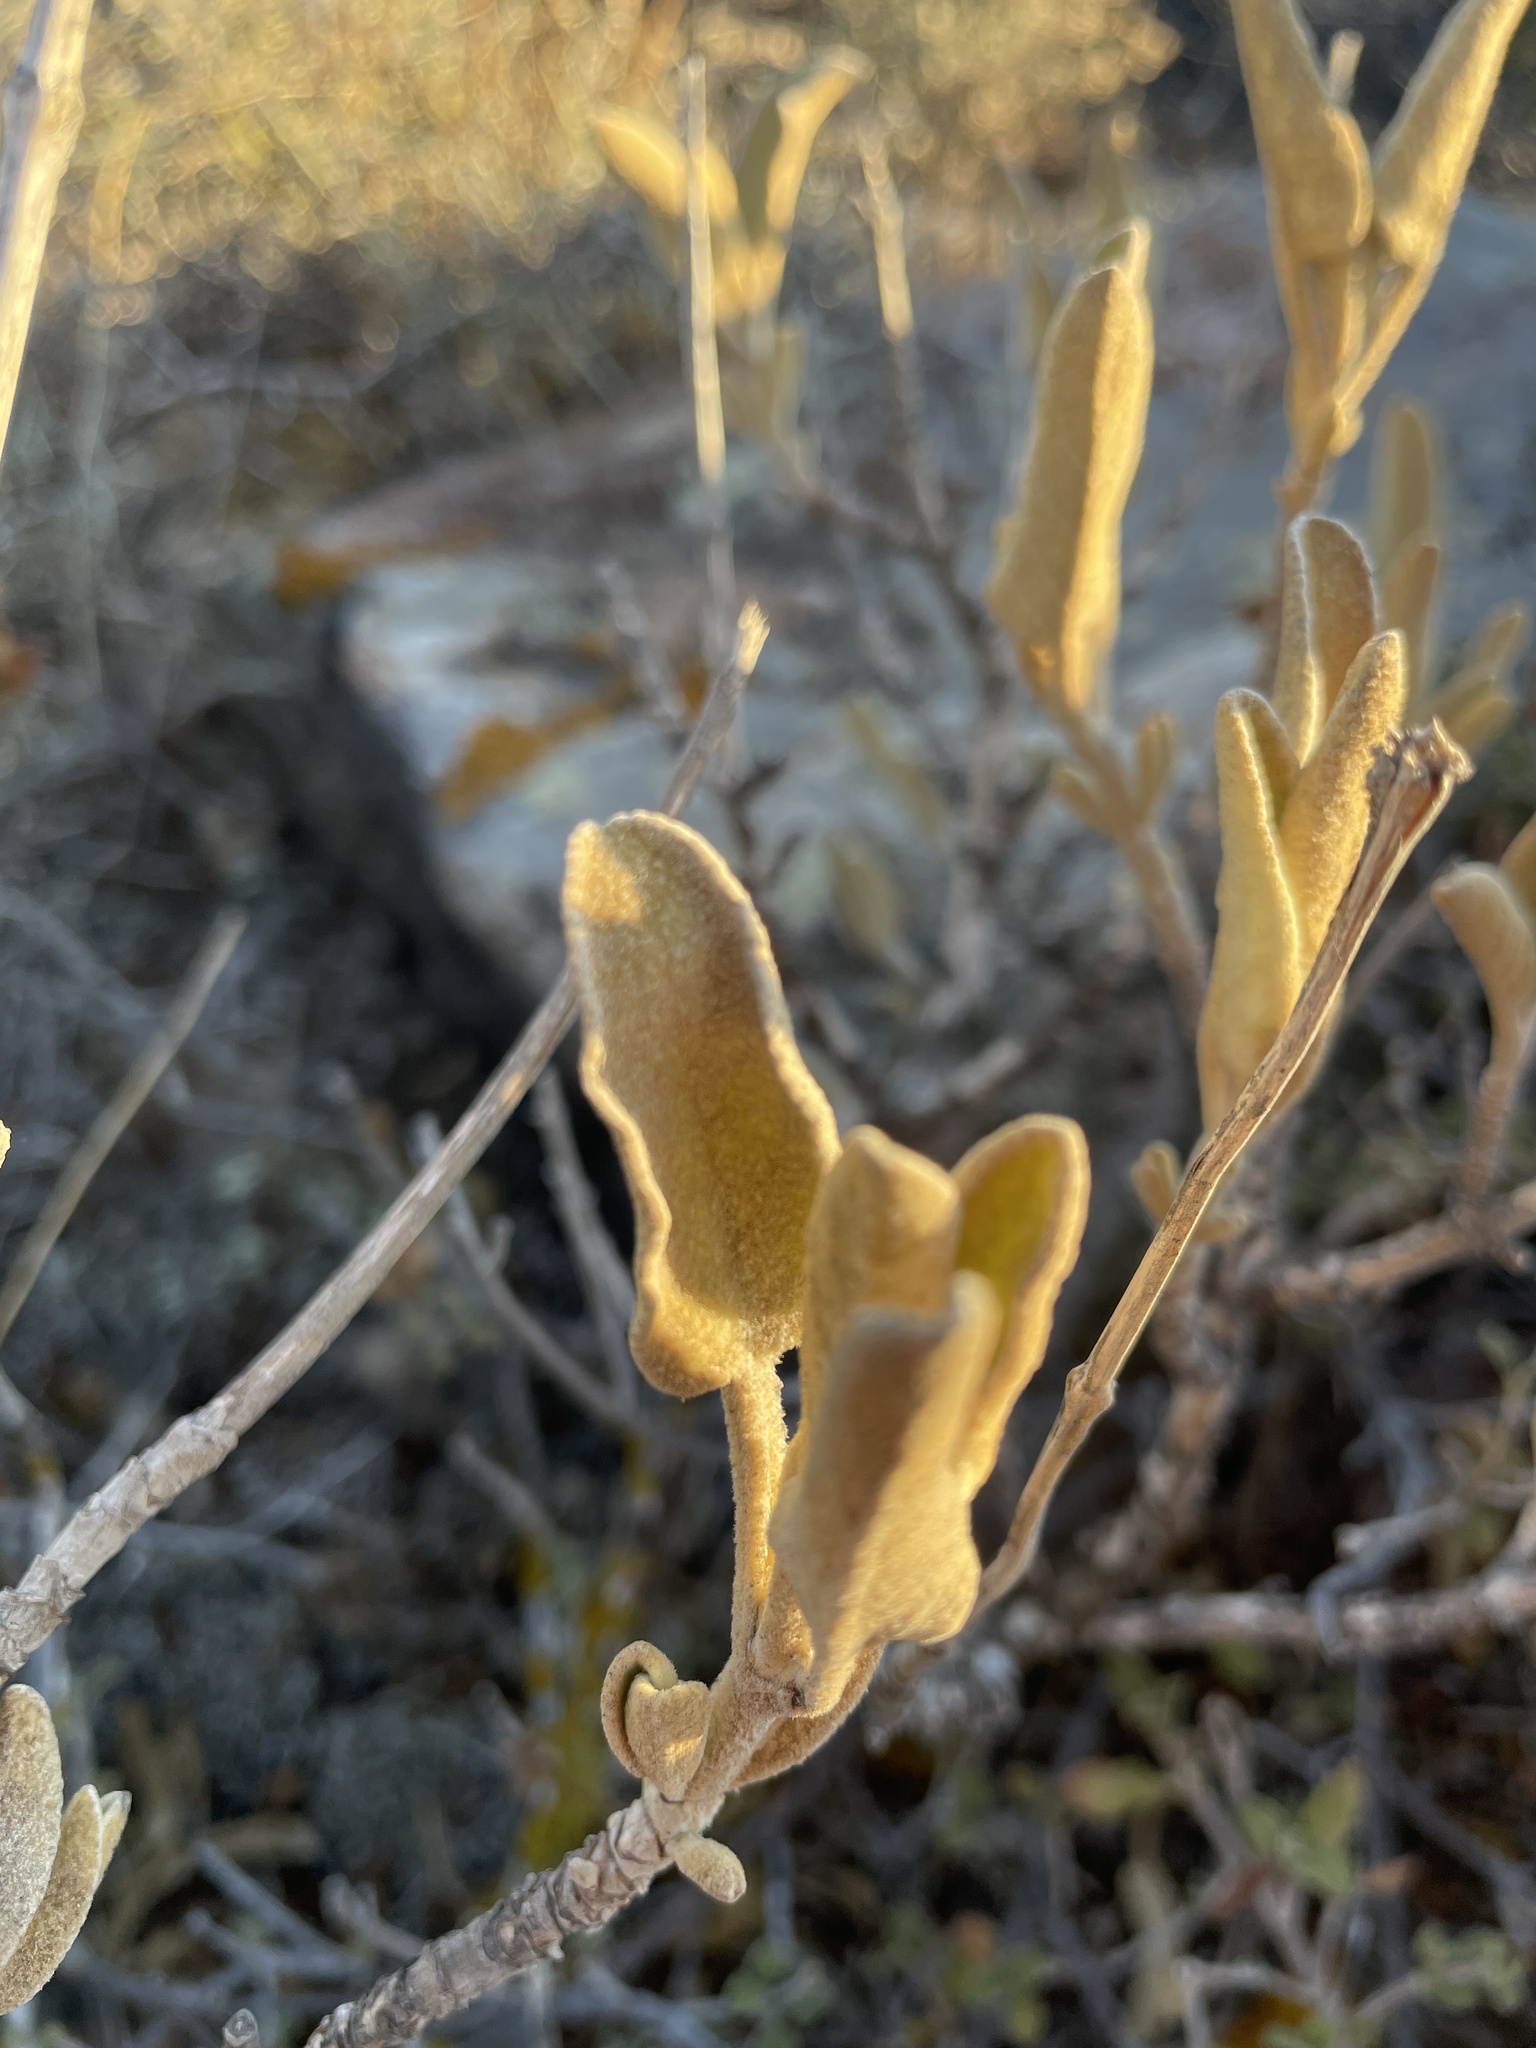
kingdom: Plantae
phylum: Tracheophyta
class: Magnoliopsida
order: Lamiales
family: Lamiaceae
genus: Phlomis
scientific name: Phlomis fruticosa
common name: Jerusalem sage
